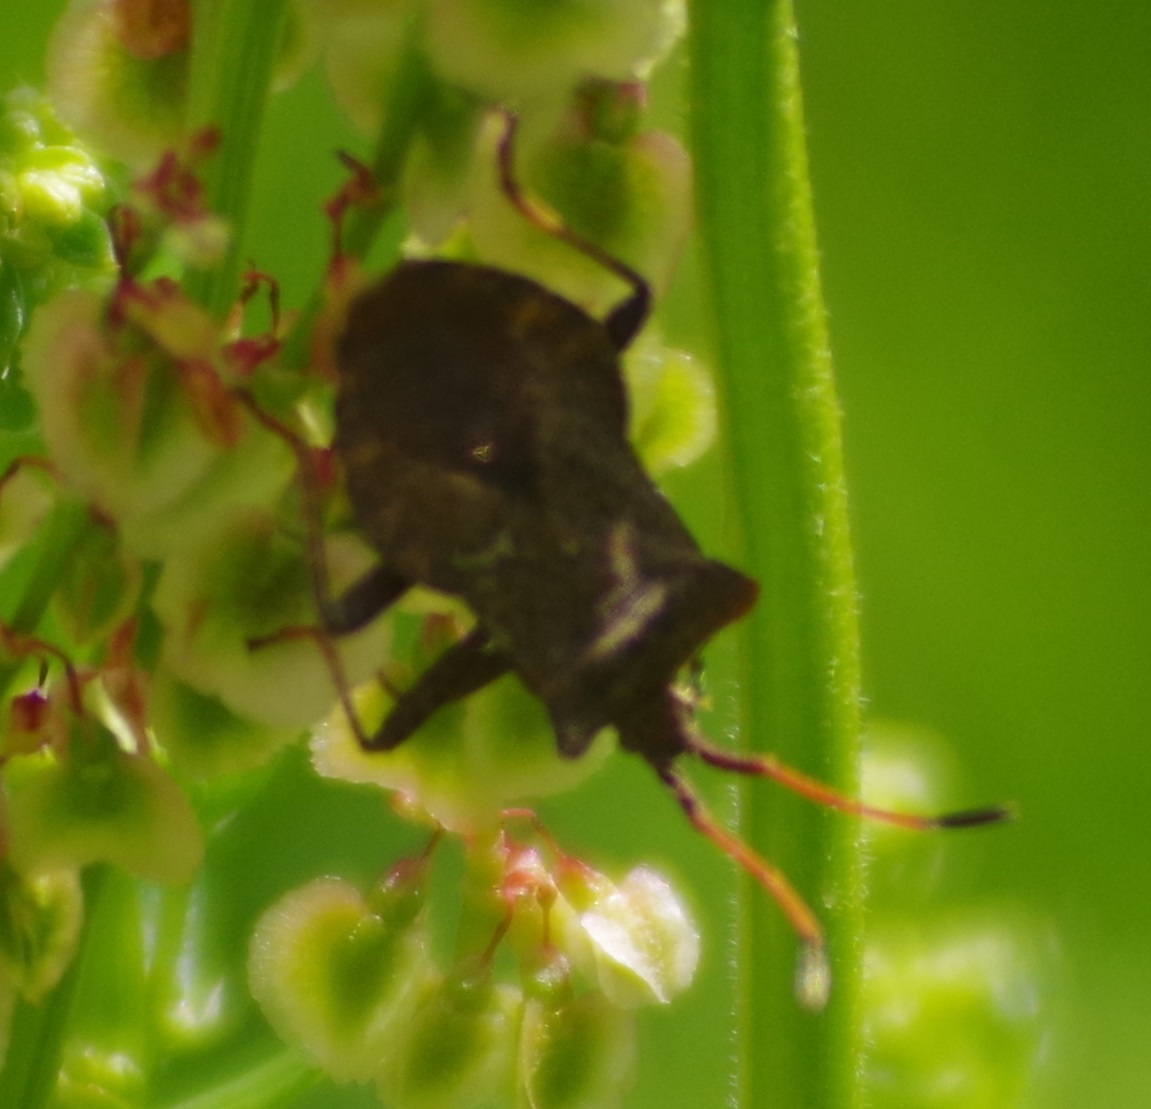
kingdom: Animalia
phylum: Arthropoda
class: Insecta
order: Hemiptera
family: Coreidae
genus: Coreus
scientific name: Coreus marginatus
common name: Dock bug
